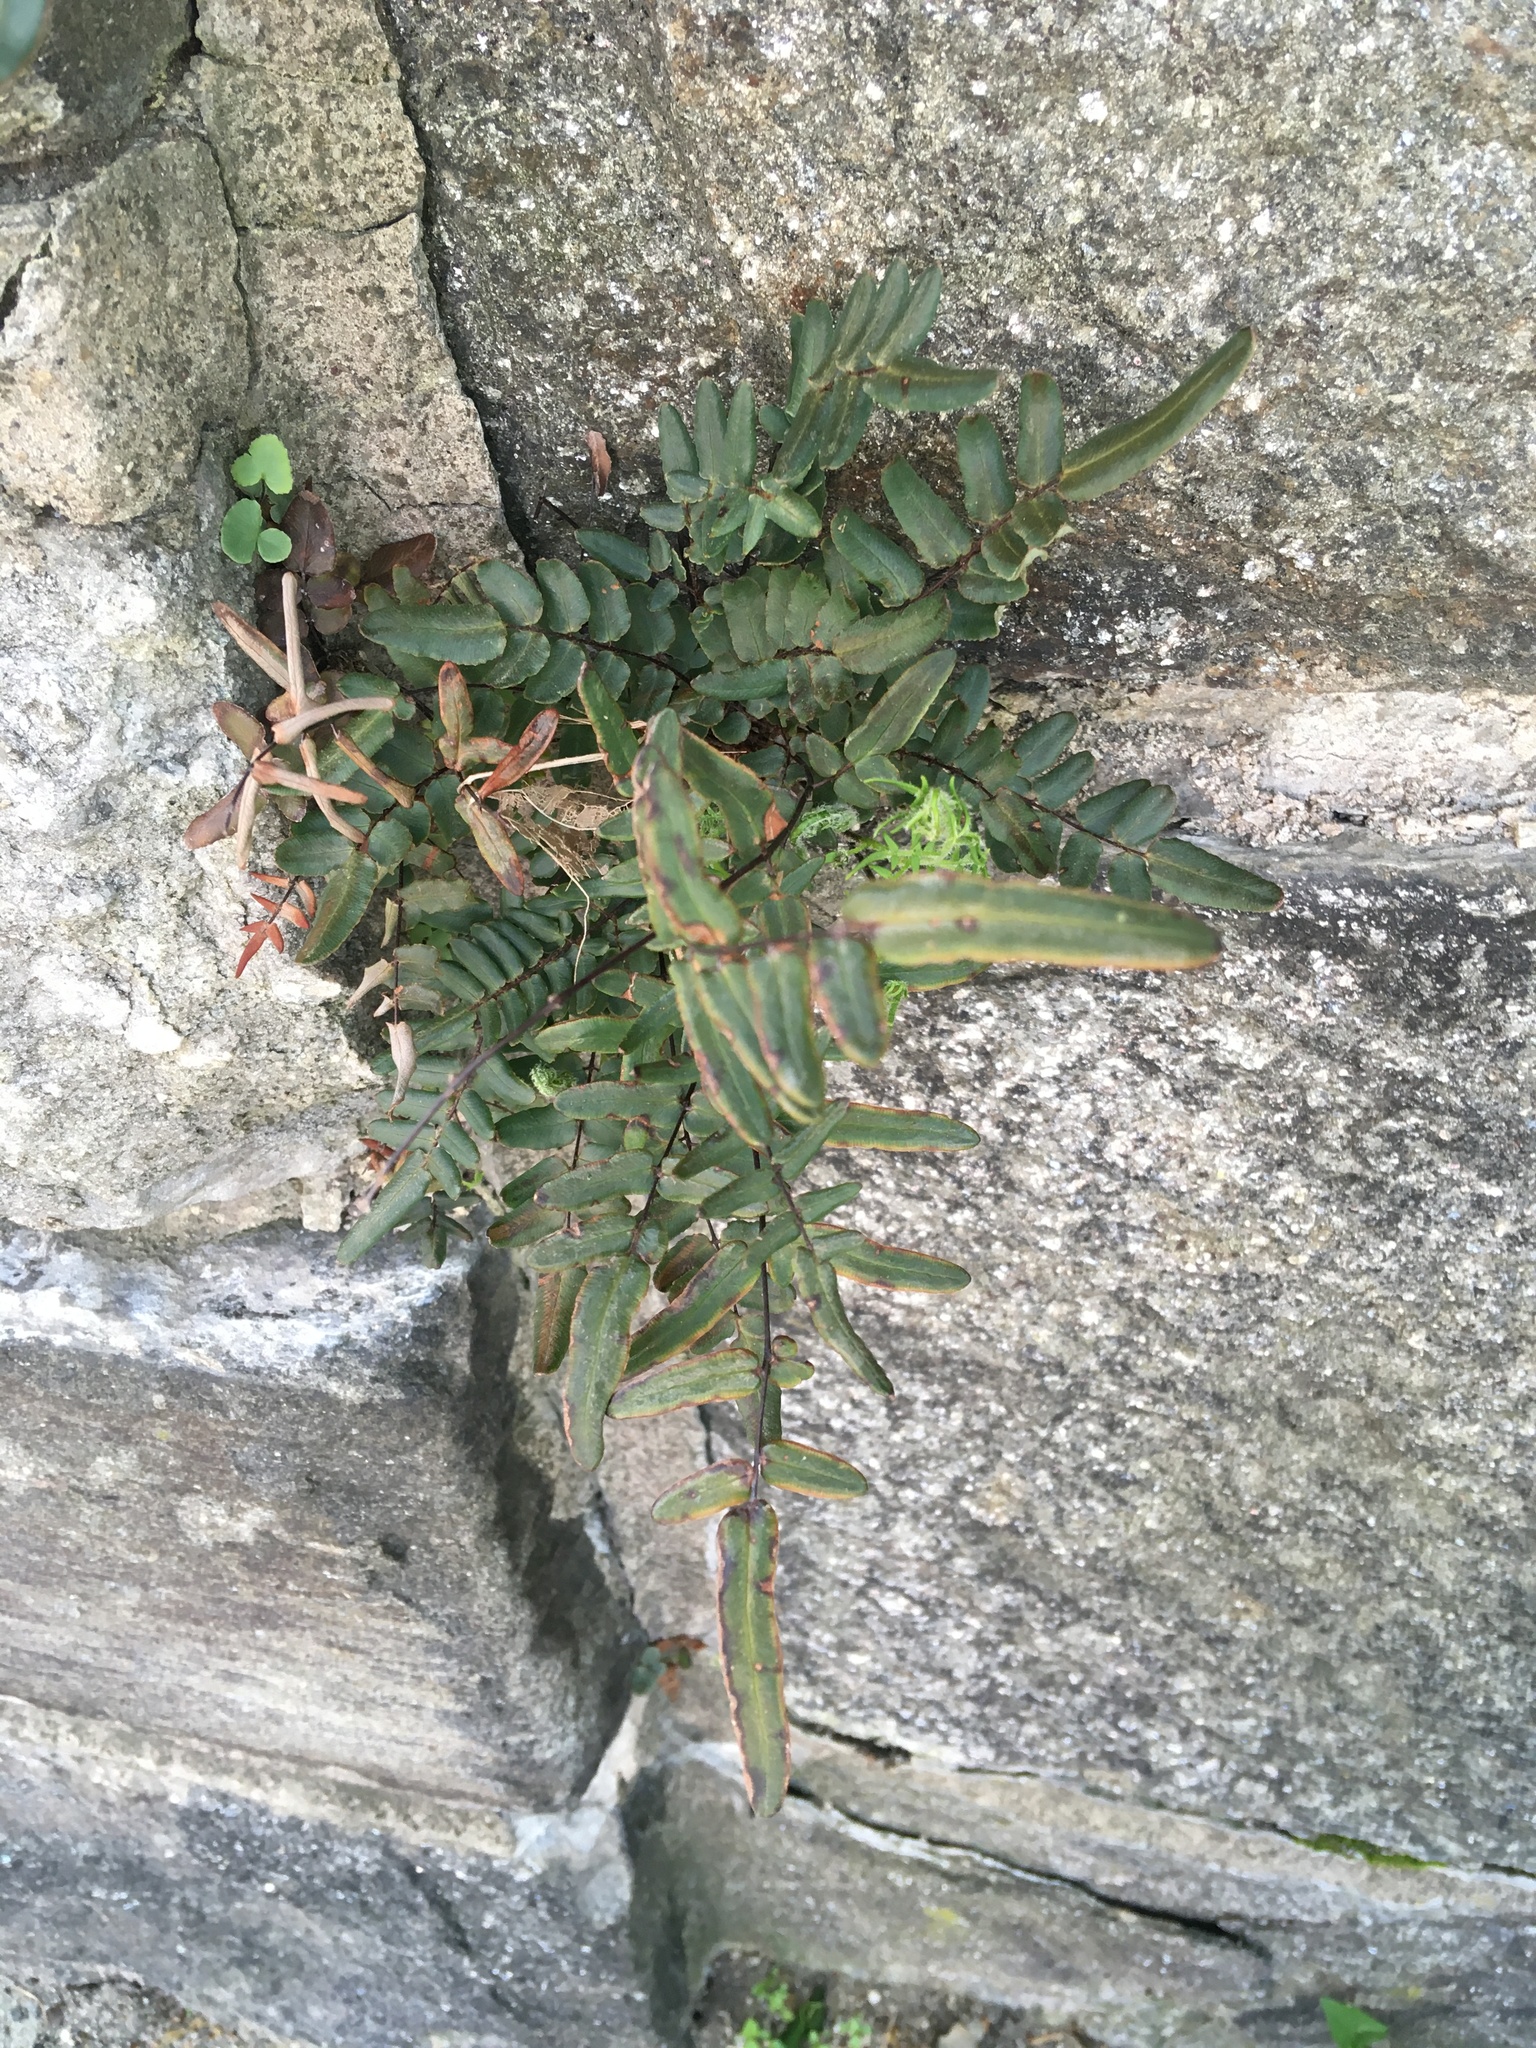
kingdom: Plantae
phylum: Tracheophyta
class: Polypodiopsida
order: Polypodiales
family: Pteridaceae
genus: Pellaea
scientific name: Pellaea atropurpurea
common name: Hairy cliffbrake
